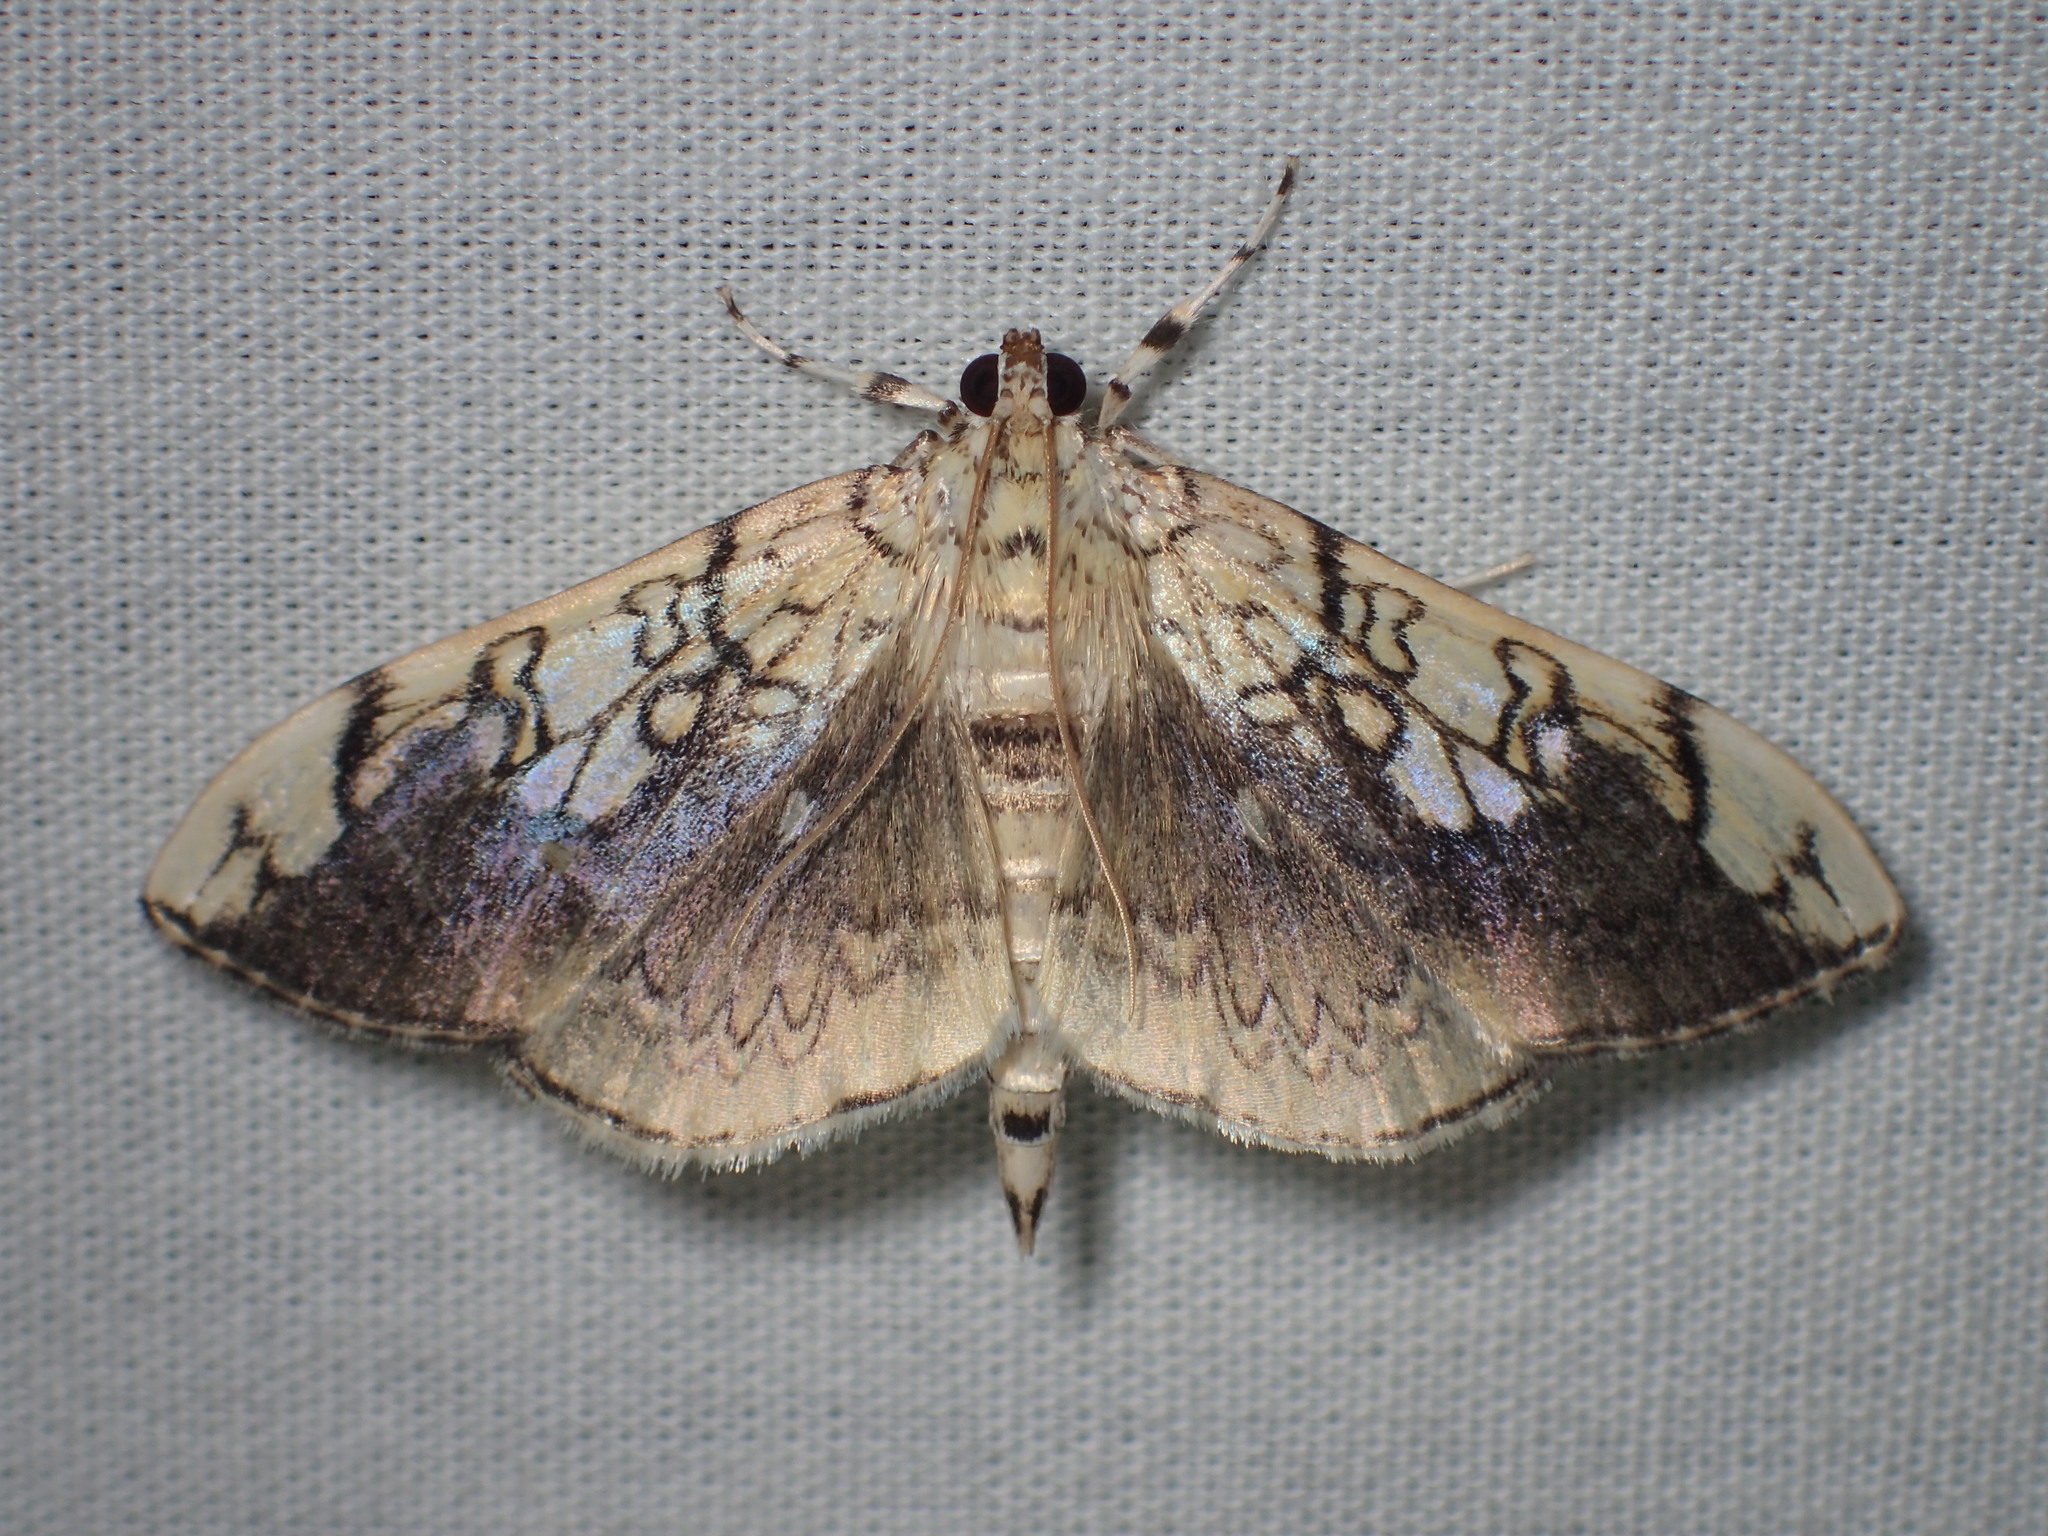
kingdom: Animalia
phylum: Arthropoda
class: Insecta
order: Lepidoptera
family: Crambidae
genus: Pantographa
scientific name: Pantographa limata
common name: Basswood leafroller moth
